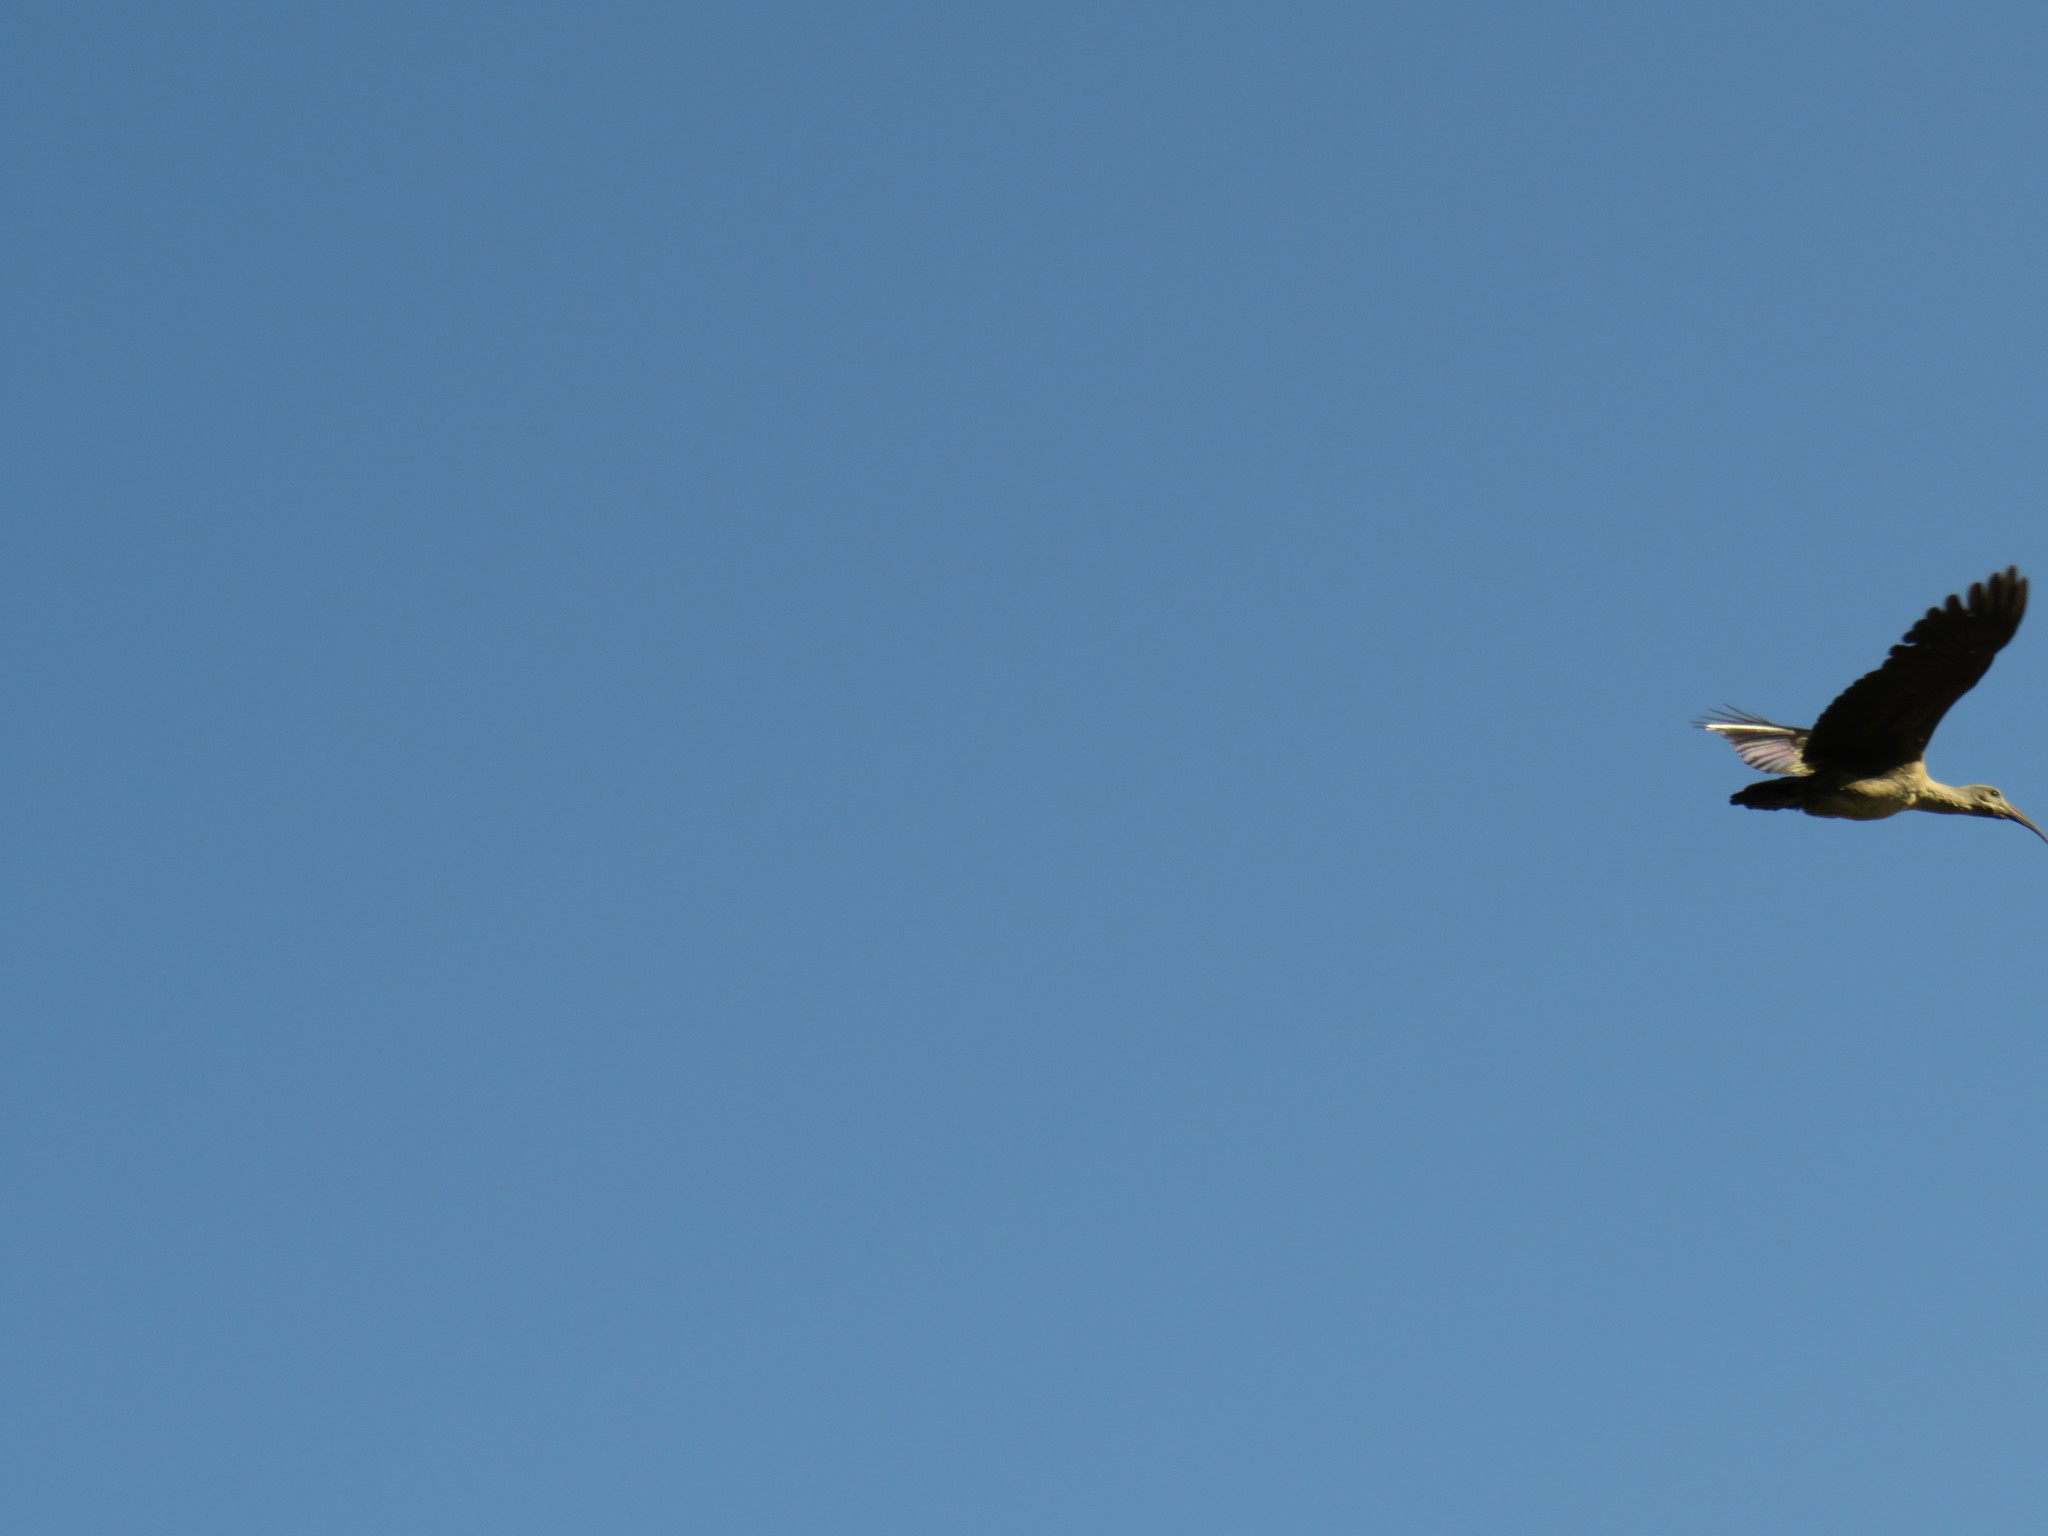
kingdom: Animalia
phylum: Chordata
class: Aves
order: Pelecaniformes
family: Threskiornithidae
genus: Bostrychia
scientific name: Bostrychia hagedash
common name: Hadada ibis
